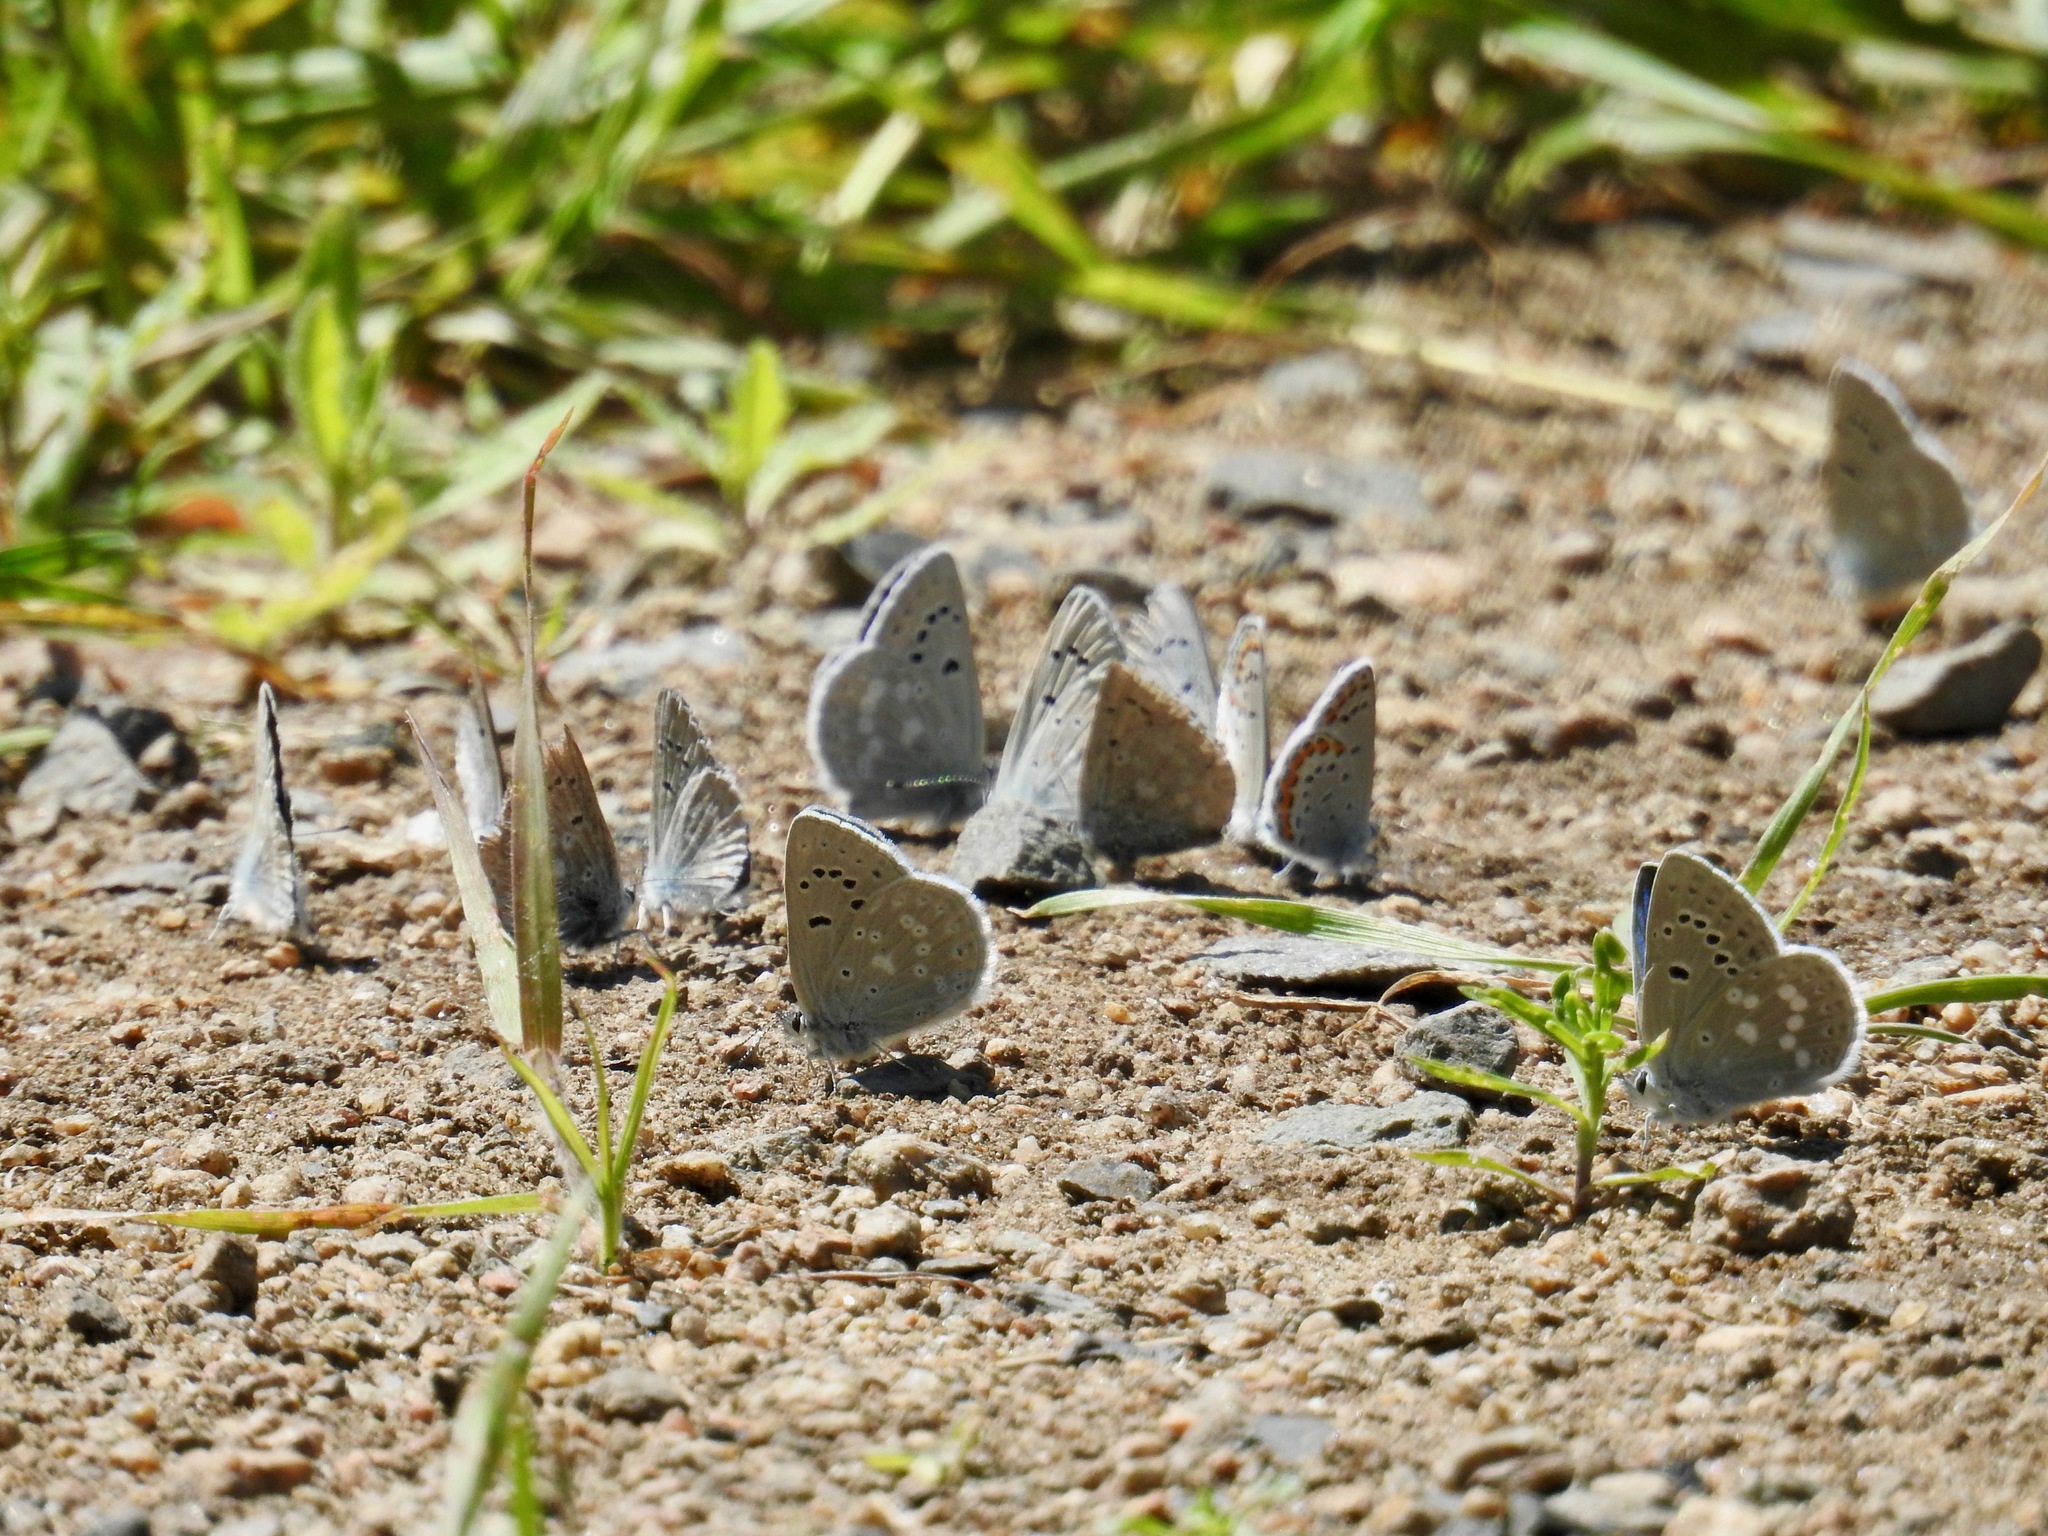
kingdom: Animalia
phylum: Arthropoda
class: Insecta
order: Lepidoptera
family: Lycaenidae
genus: Icaricia
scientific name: Icaricia icarioides
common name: Boisduval's blue
